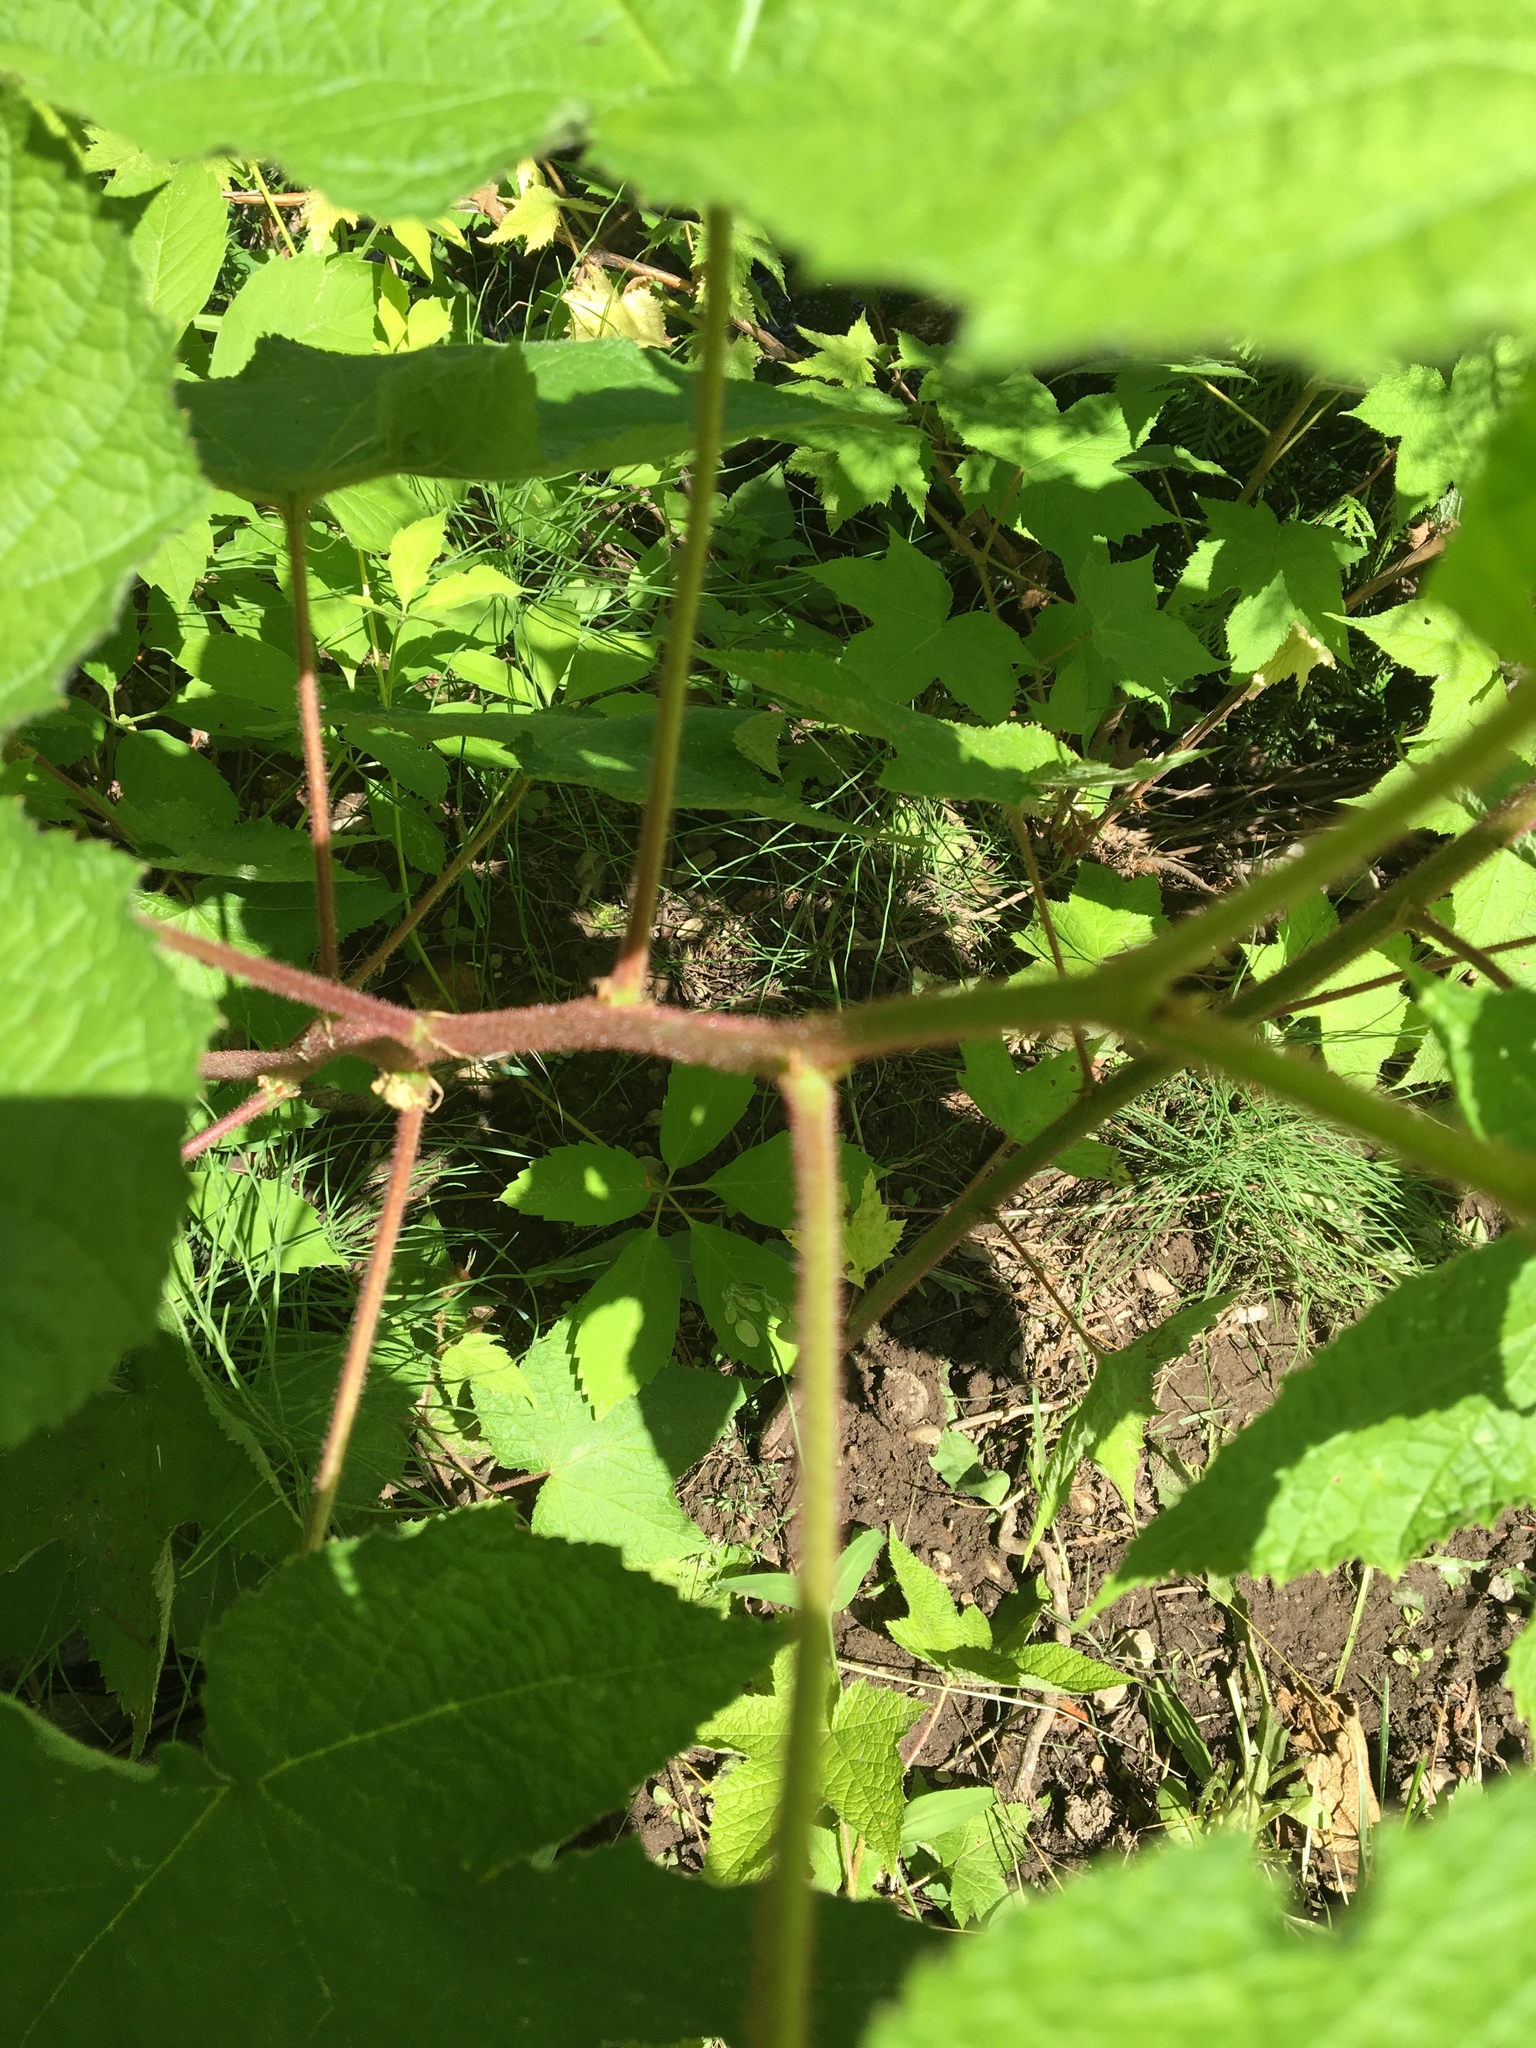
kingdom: Plantae
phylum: Tracheophyta
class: Magnoliopsida
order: Rosales
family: Rosaceae
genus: Rubus
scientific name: Rubus odoratus
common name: Purple-flowered raspberry
